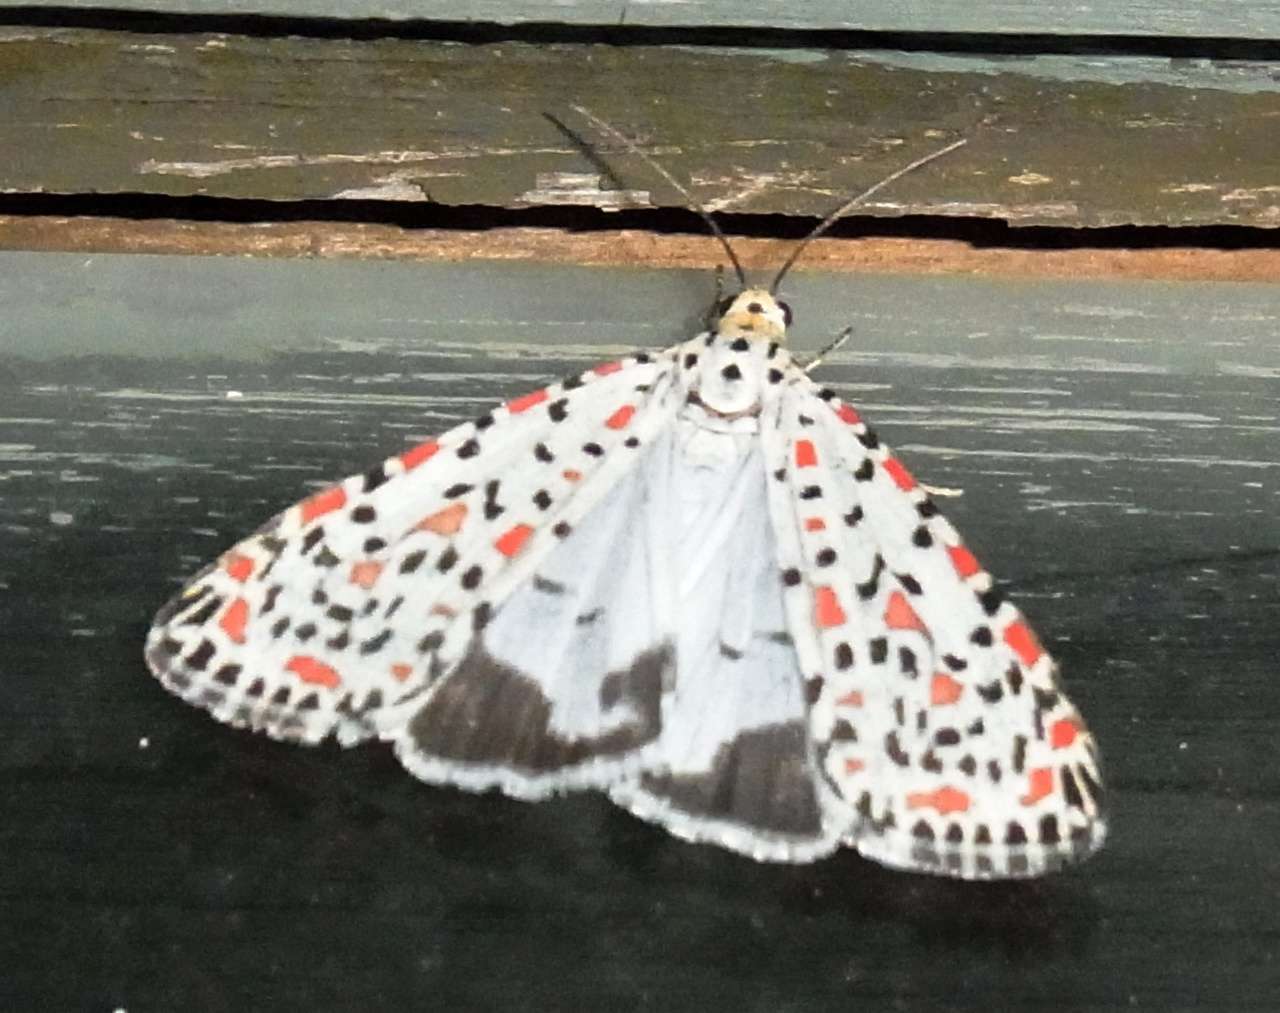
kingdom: Animalia
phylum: Arthropoda
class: Insecta
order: Lepidoptera
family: Erebidae
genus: Utetheisa
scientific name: Utetheisa pulchelloides
